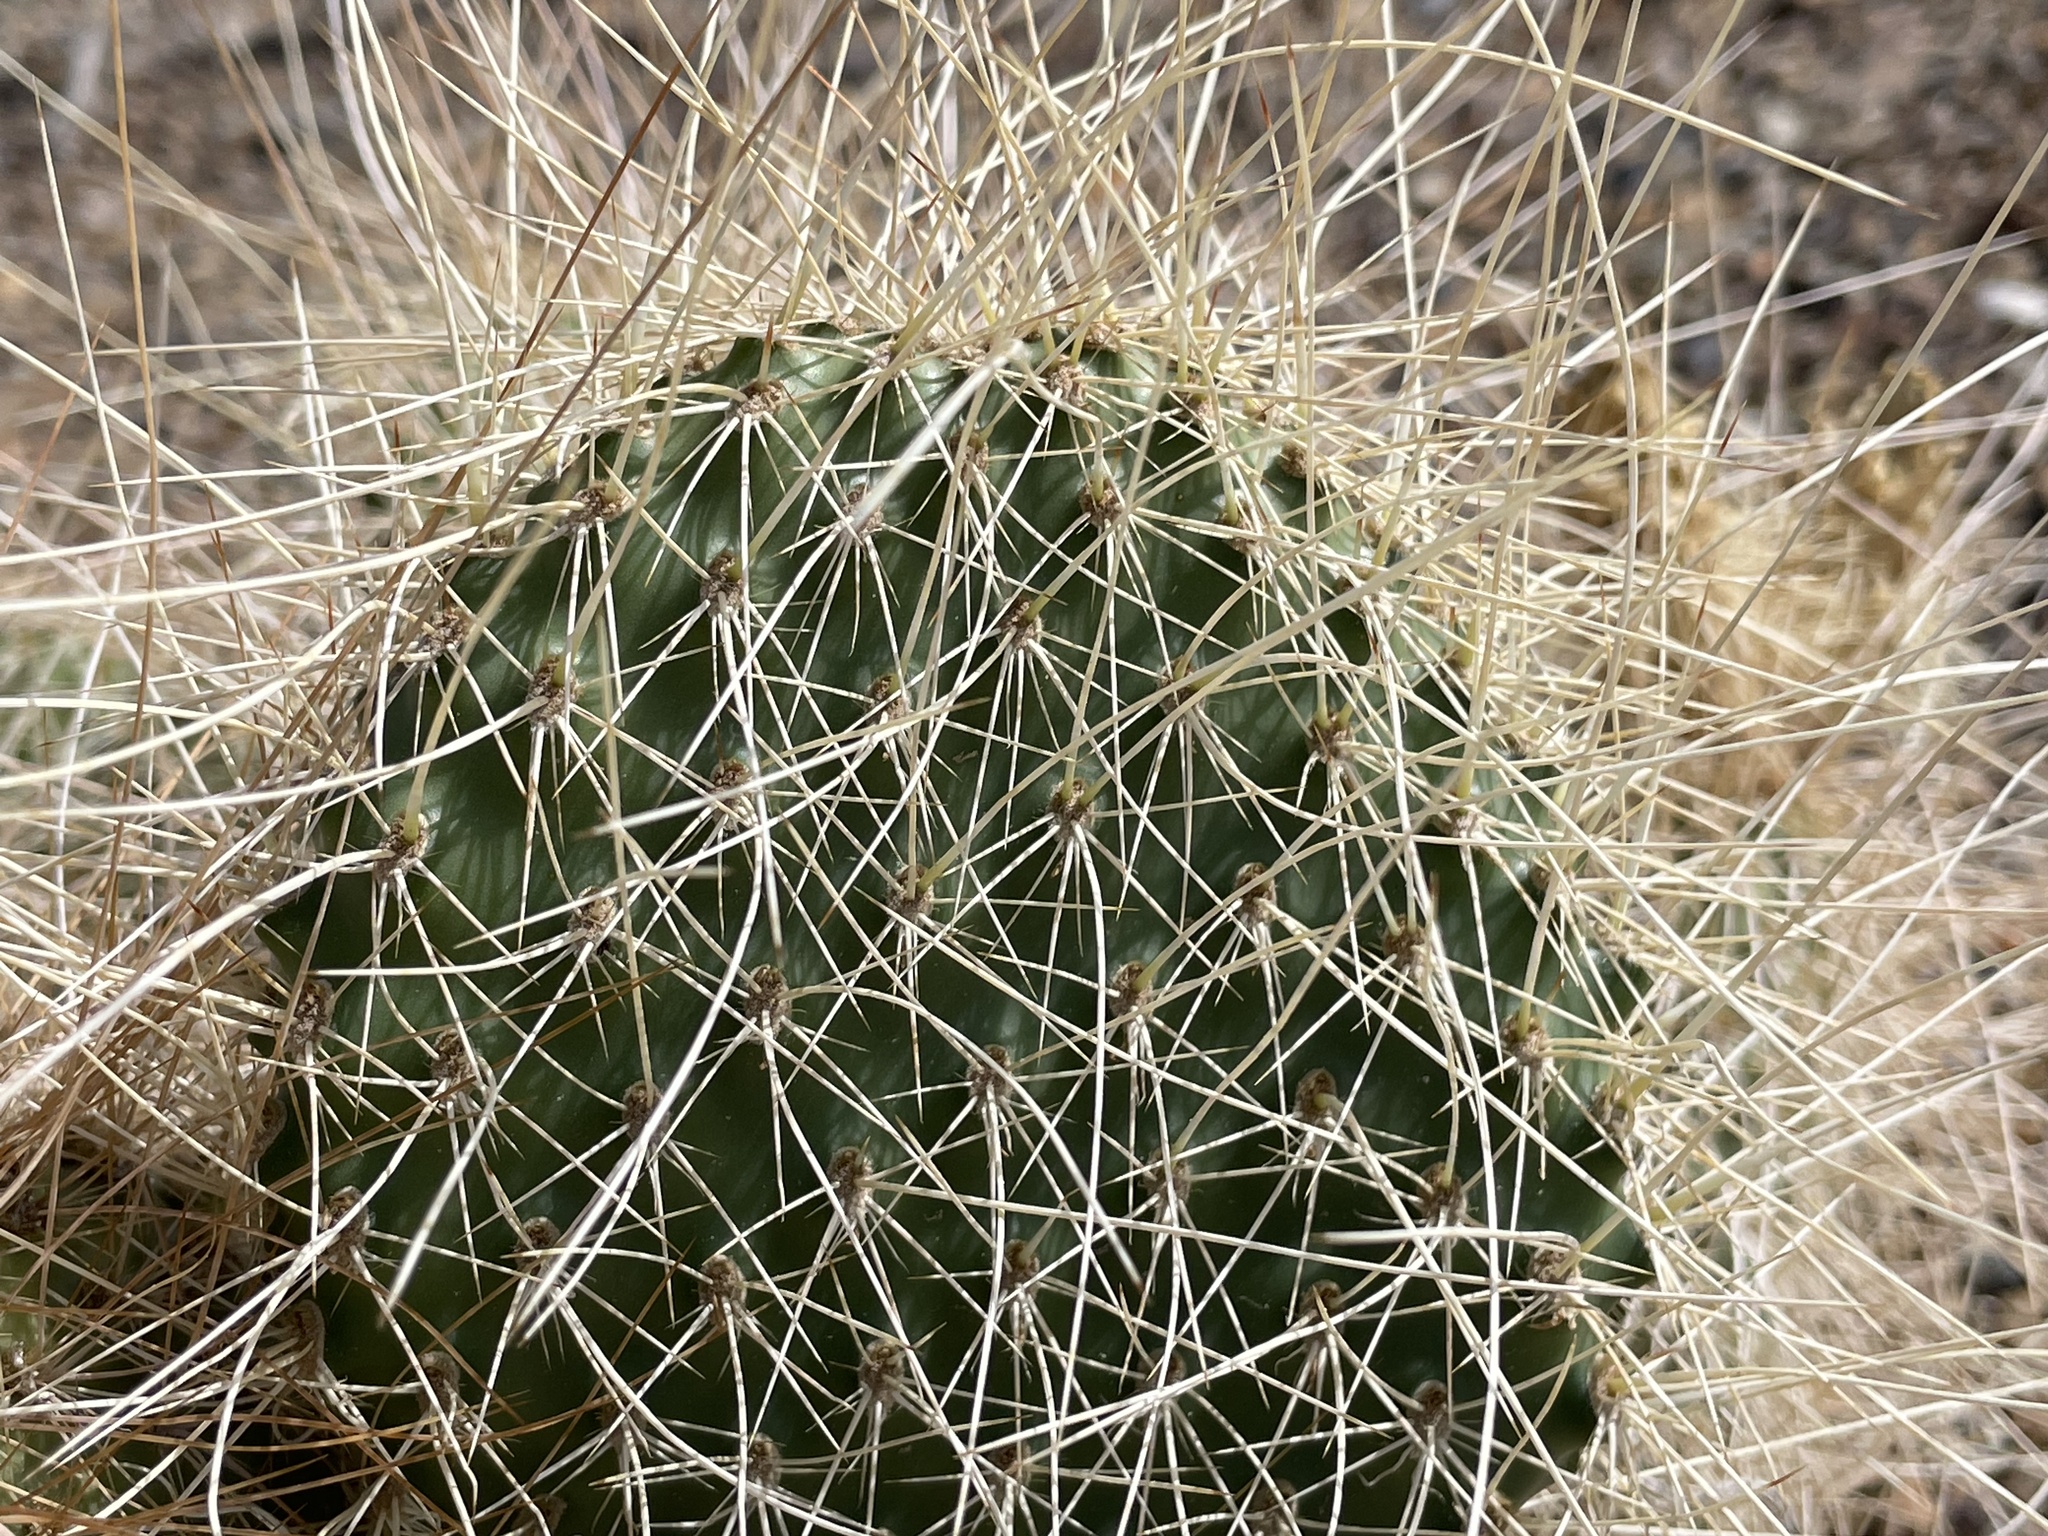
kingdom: Plantae
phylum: Tracheophyta
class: Magnoliopsida
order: Caryophyllales
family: Cactaceae
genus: Opuntia
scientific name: Opuntia polyacantha
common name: Plains prickly-pear
